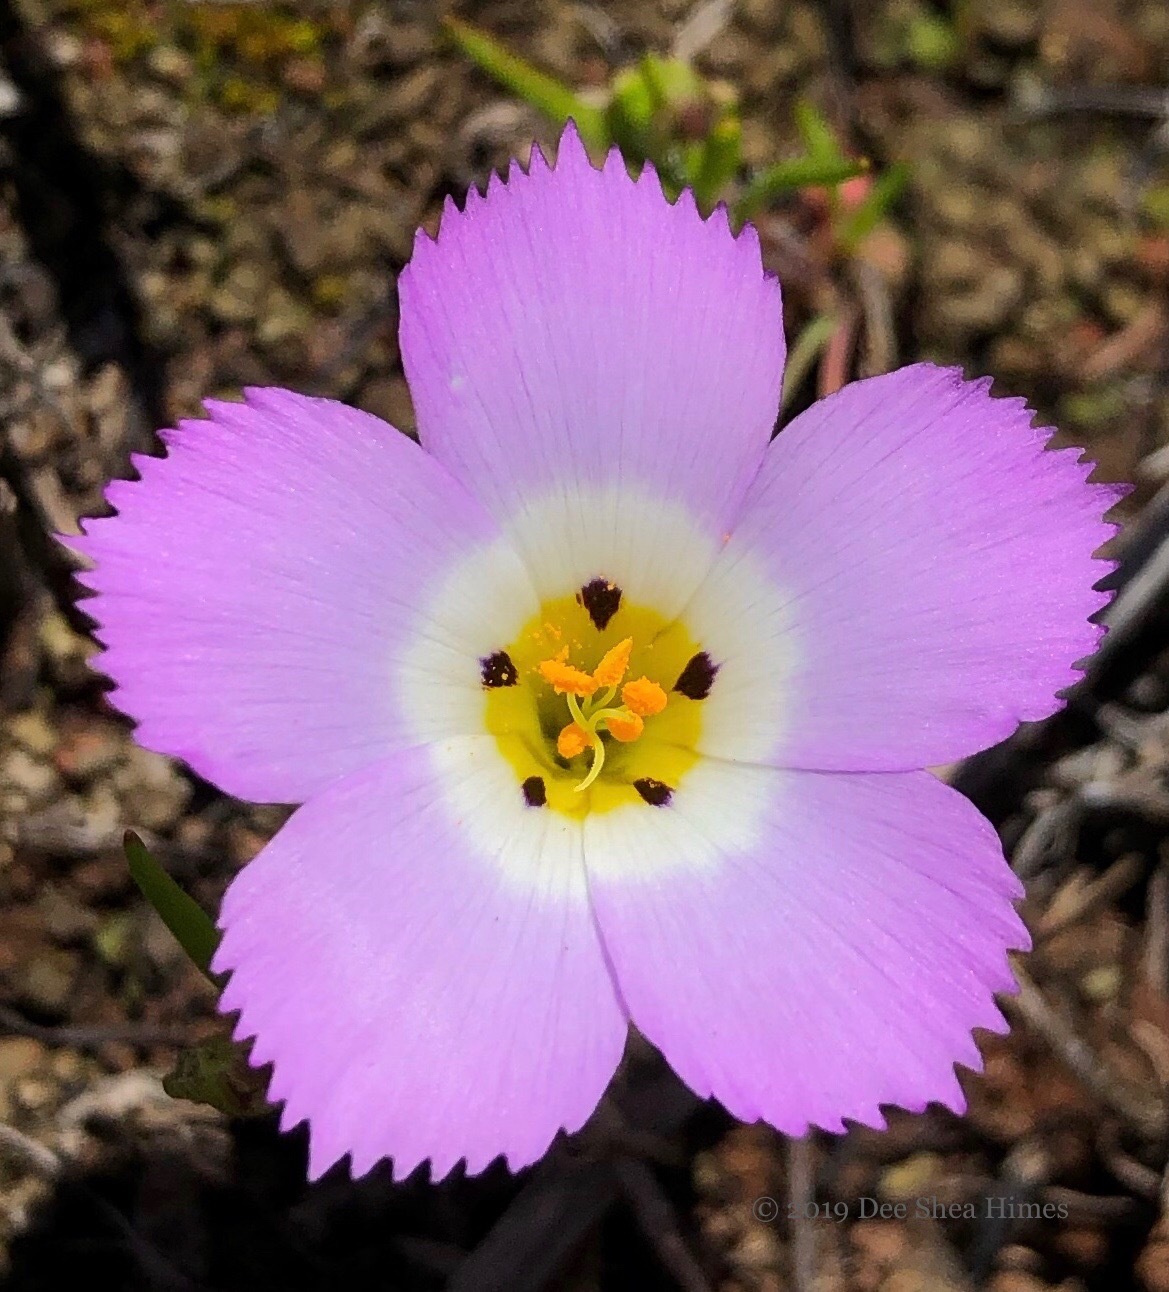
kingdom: Plantae
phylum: Tracheophyta
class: Magnoliopsida
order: Ericales
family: Polemoniaceae
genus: Linanthus
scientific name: Linanthus dianthiflorus
